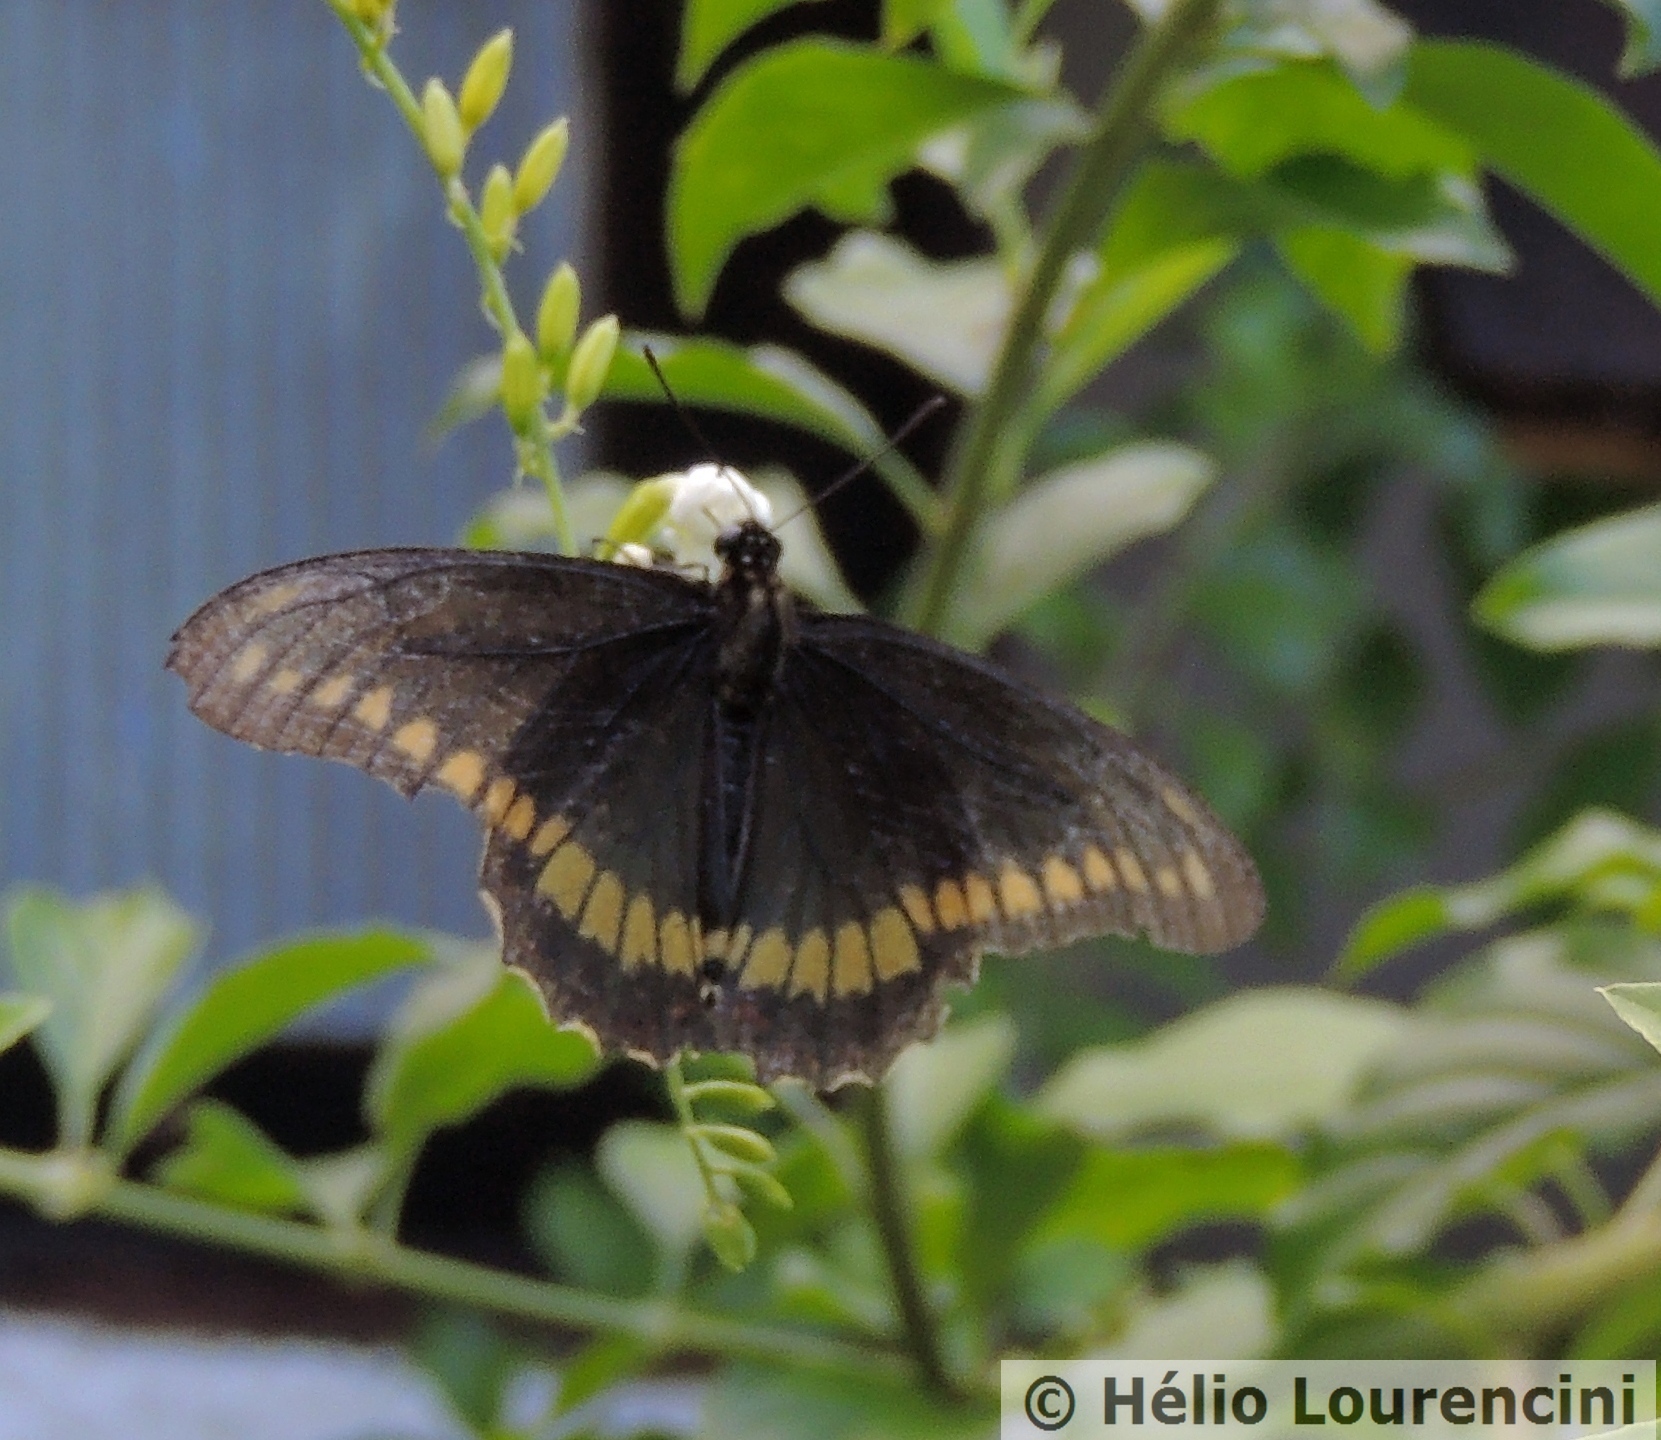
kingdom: Animalia
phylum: Arthropoda
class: Insecta
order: Lepidoptera
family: Papilionidae
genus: Battus
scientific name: Battus polydamas
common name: Polydamas swallowtail
